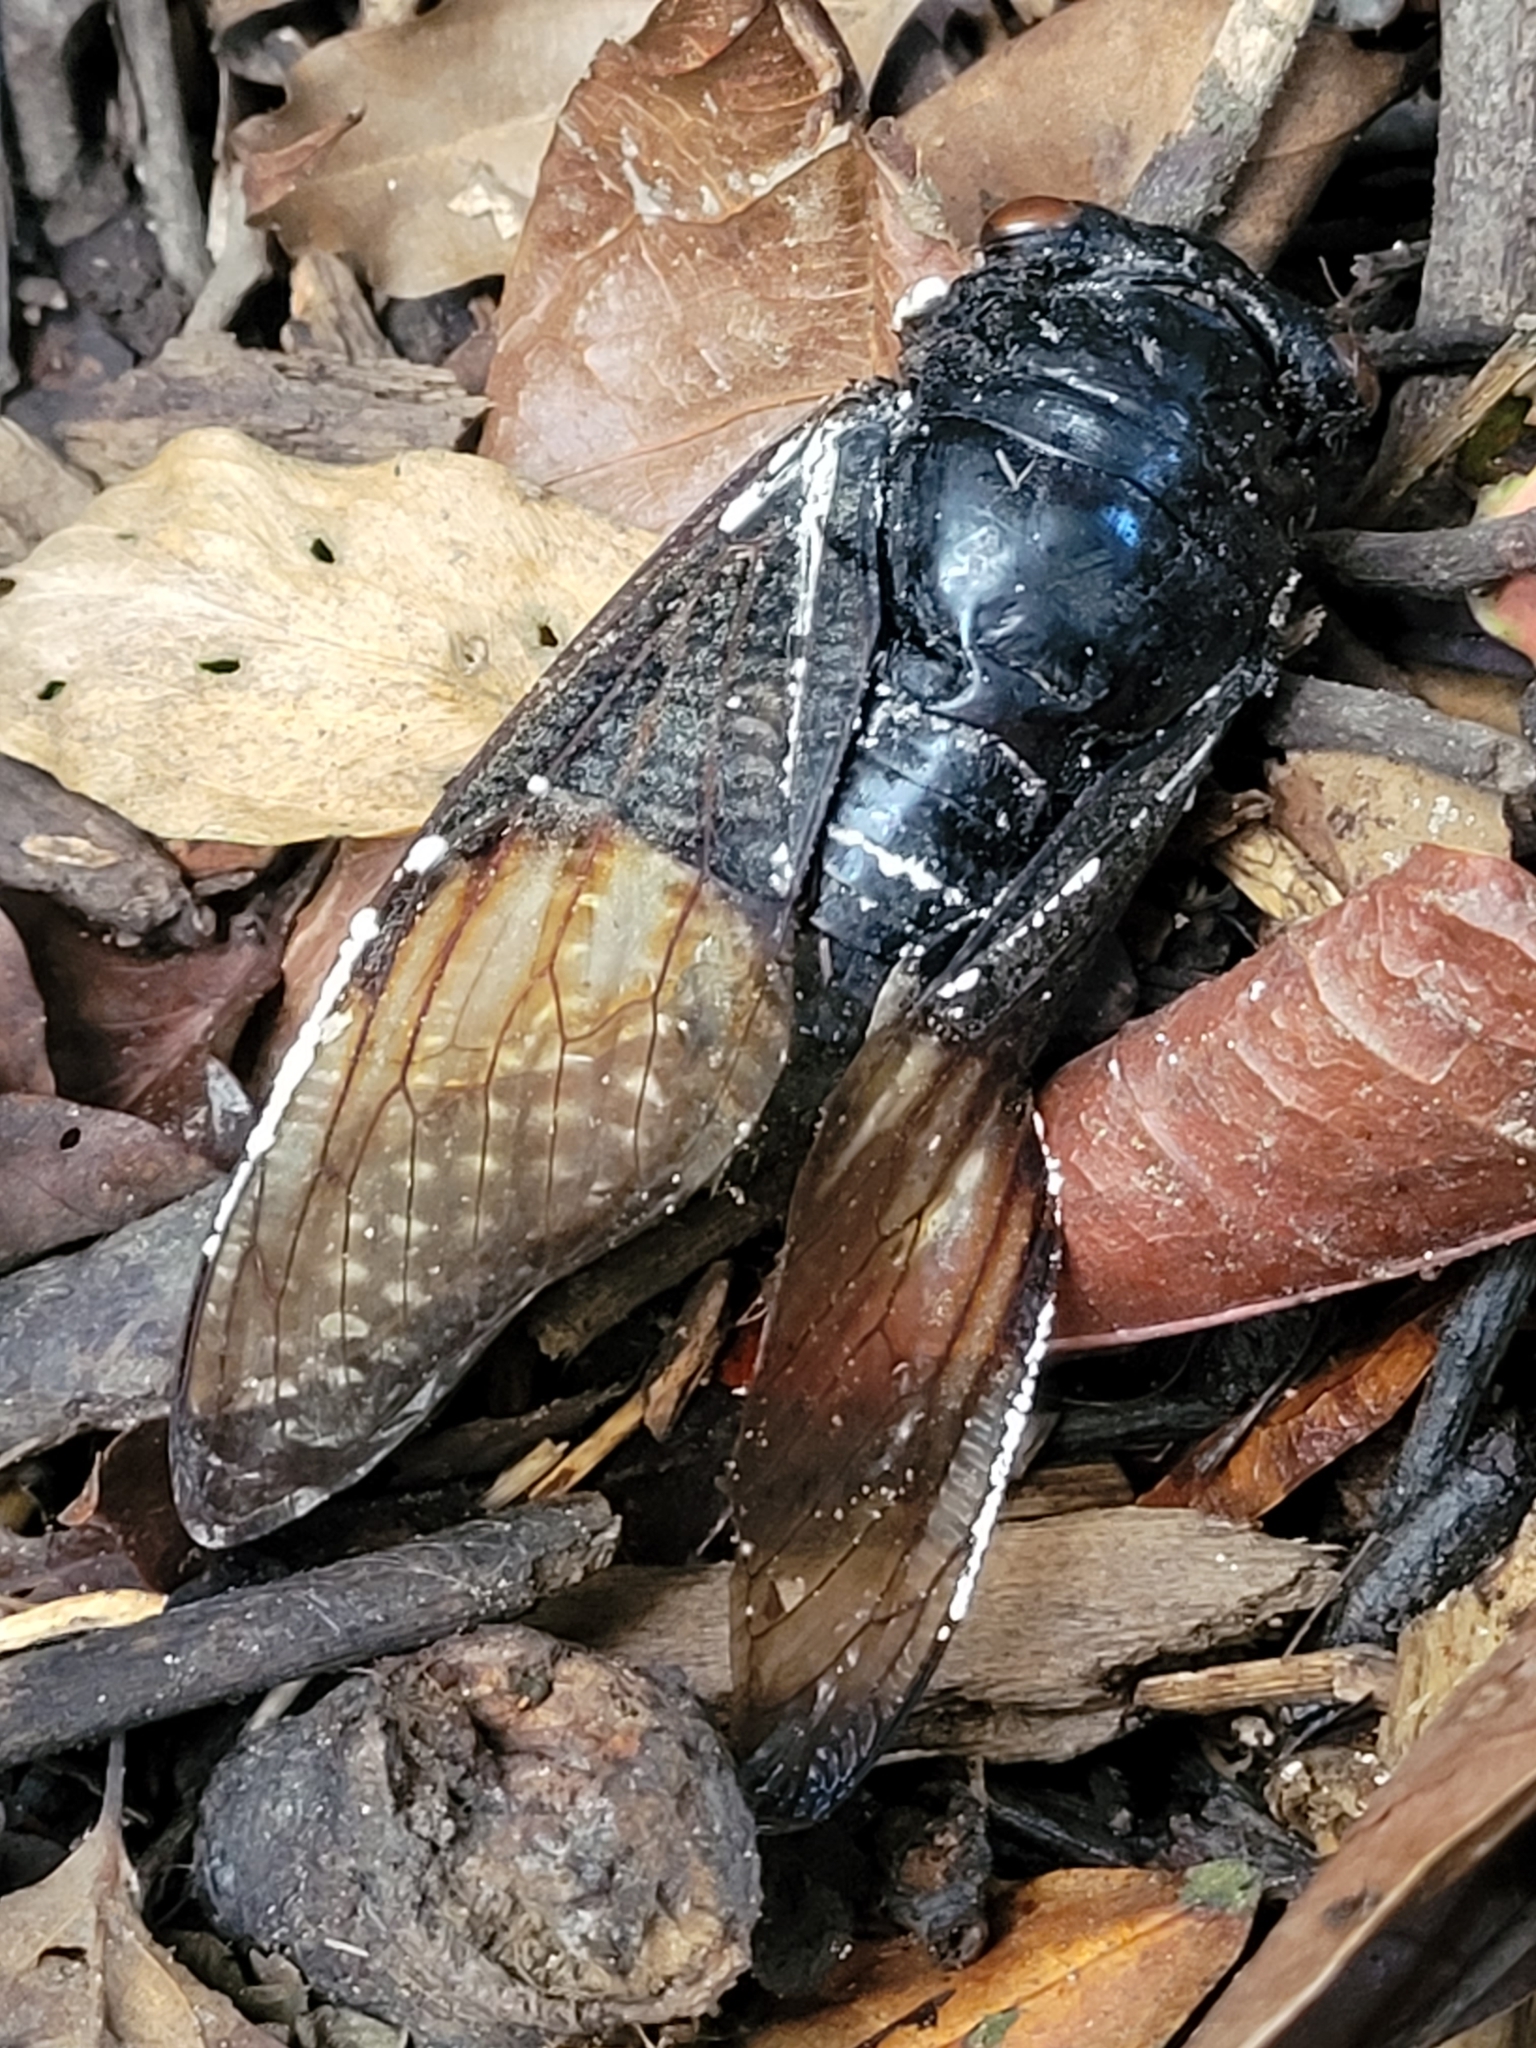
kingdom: Animalia
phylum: Arthropoda
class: Insecta
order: Hemiptera
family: Cicadidae
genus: Cryptotympana
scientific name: Cryptotympana holsti
